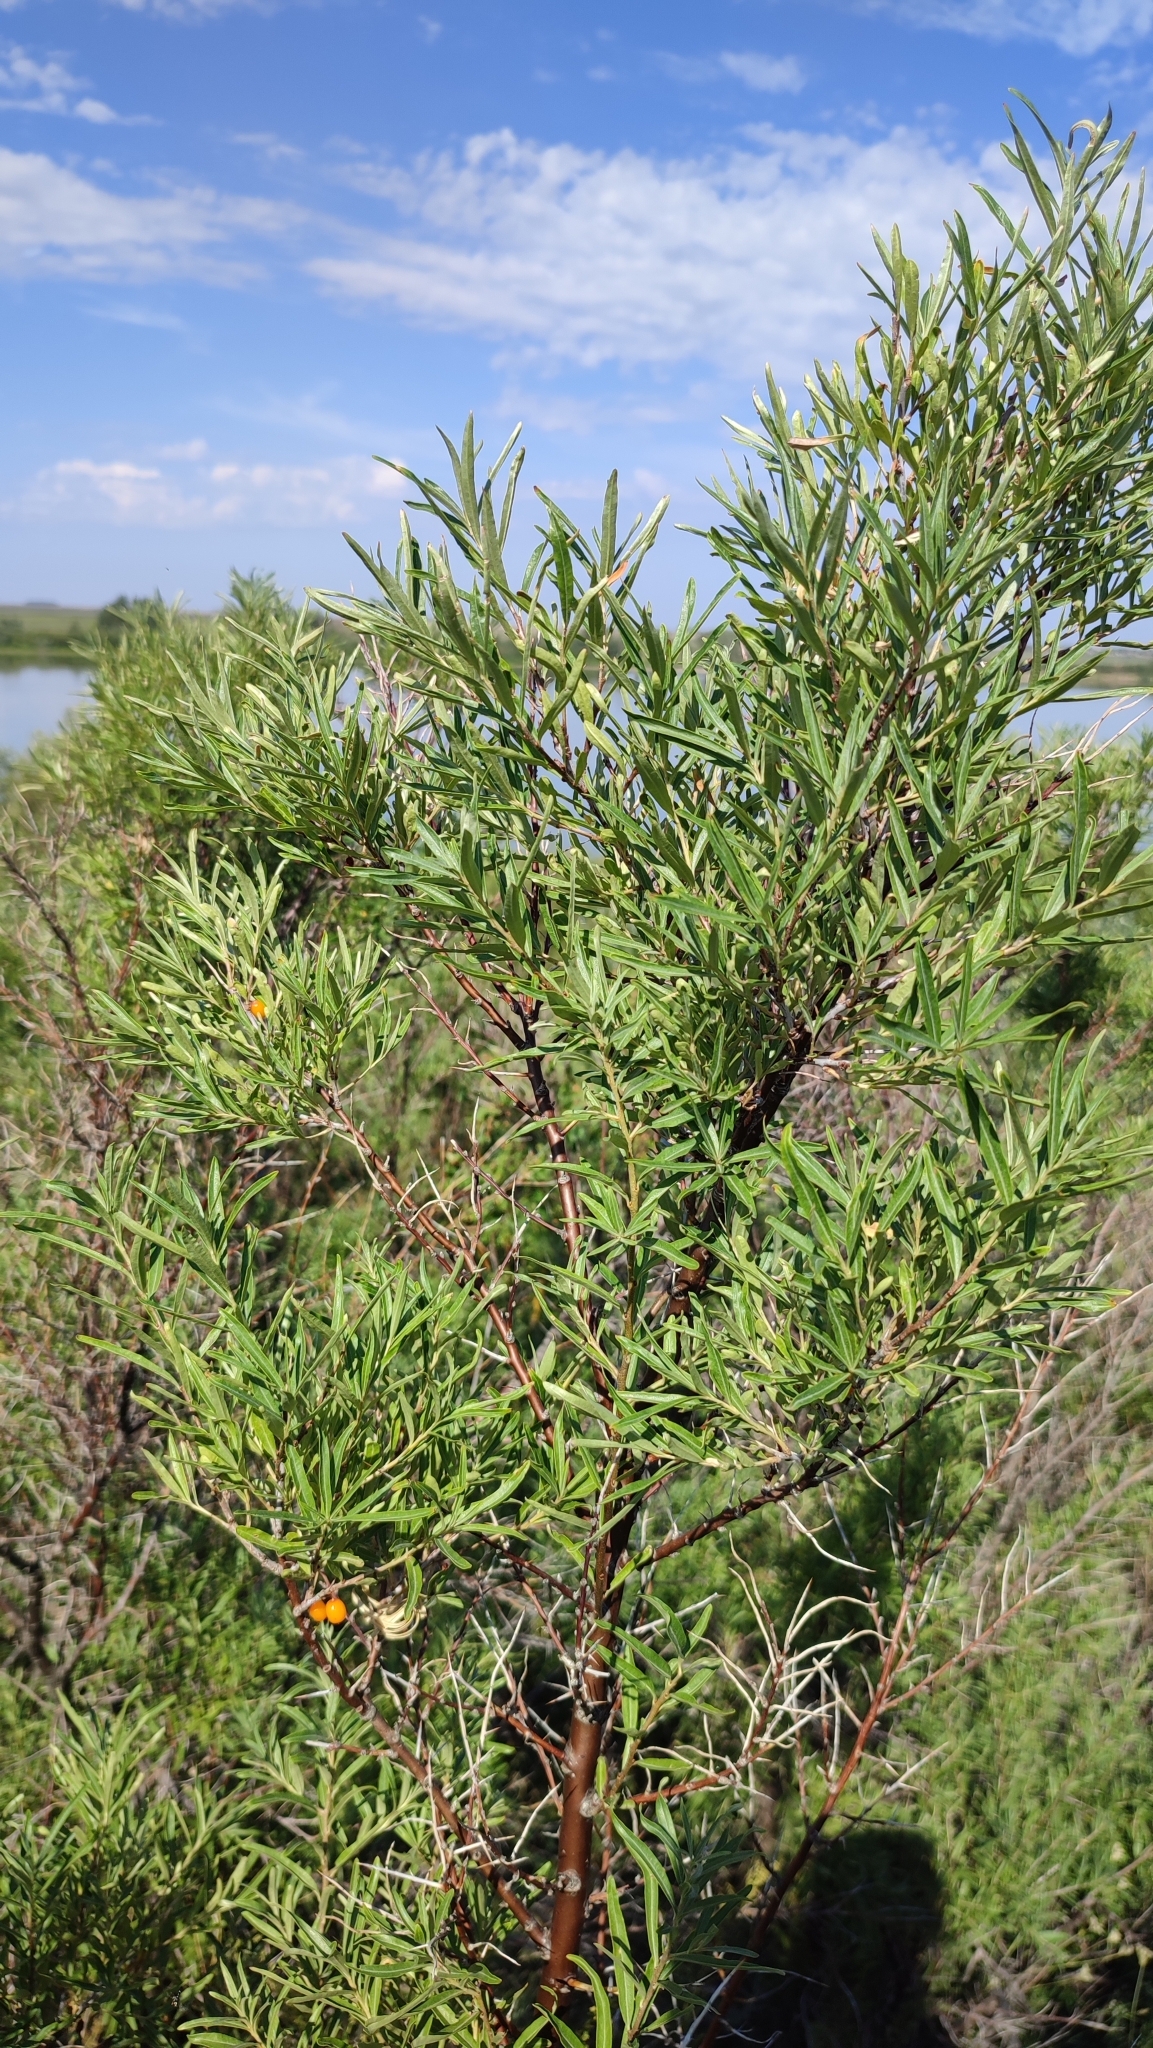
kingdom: Plantae
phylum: Tracheophyta
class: Magnoliopsida
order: Rosales
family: Elaeagnaceae
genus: Hippophae
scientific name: Hippophae rhamnoides
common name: Sea-buckthorn
